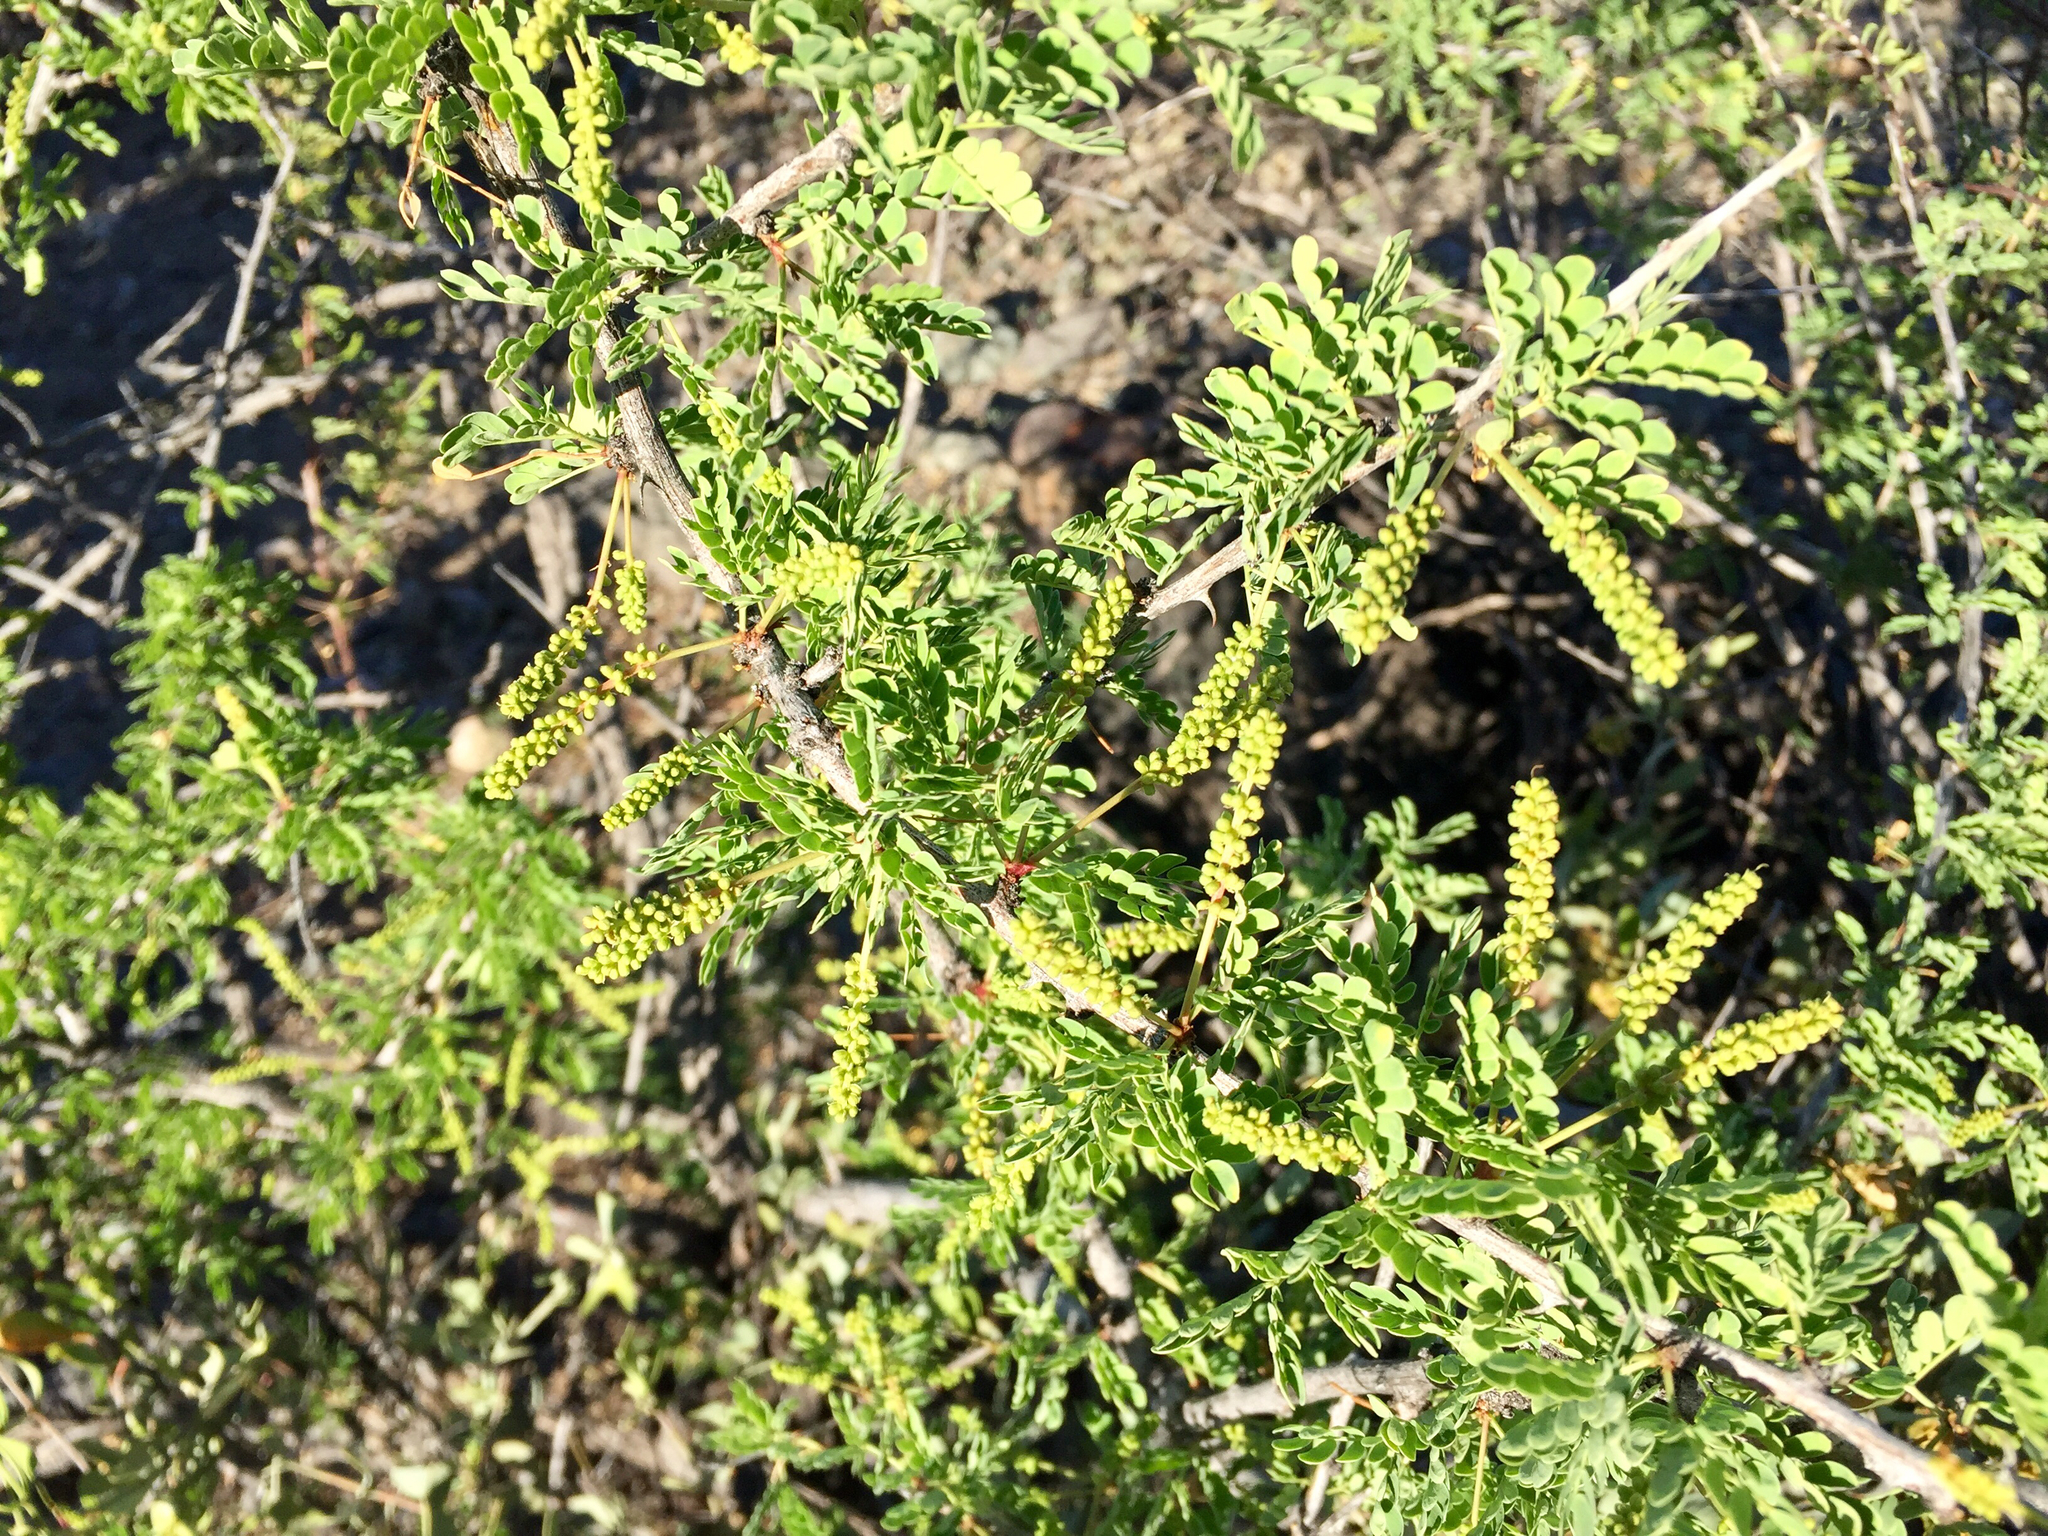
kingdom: Plantae
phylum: Tracheophyta
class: Magnoliopsida
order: Fabales
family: Fabaceae
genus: Senegalia
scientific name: Senegalia greggii
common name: Texas-mimosa
